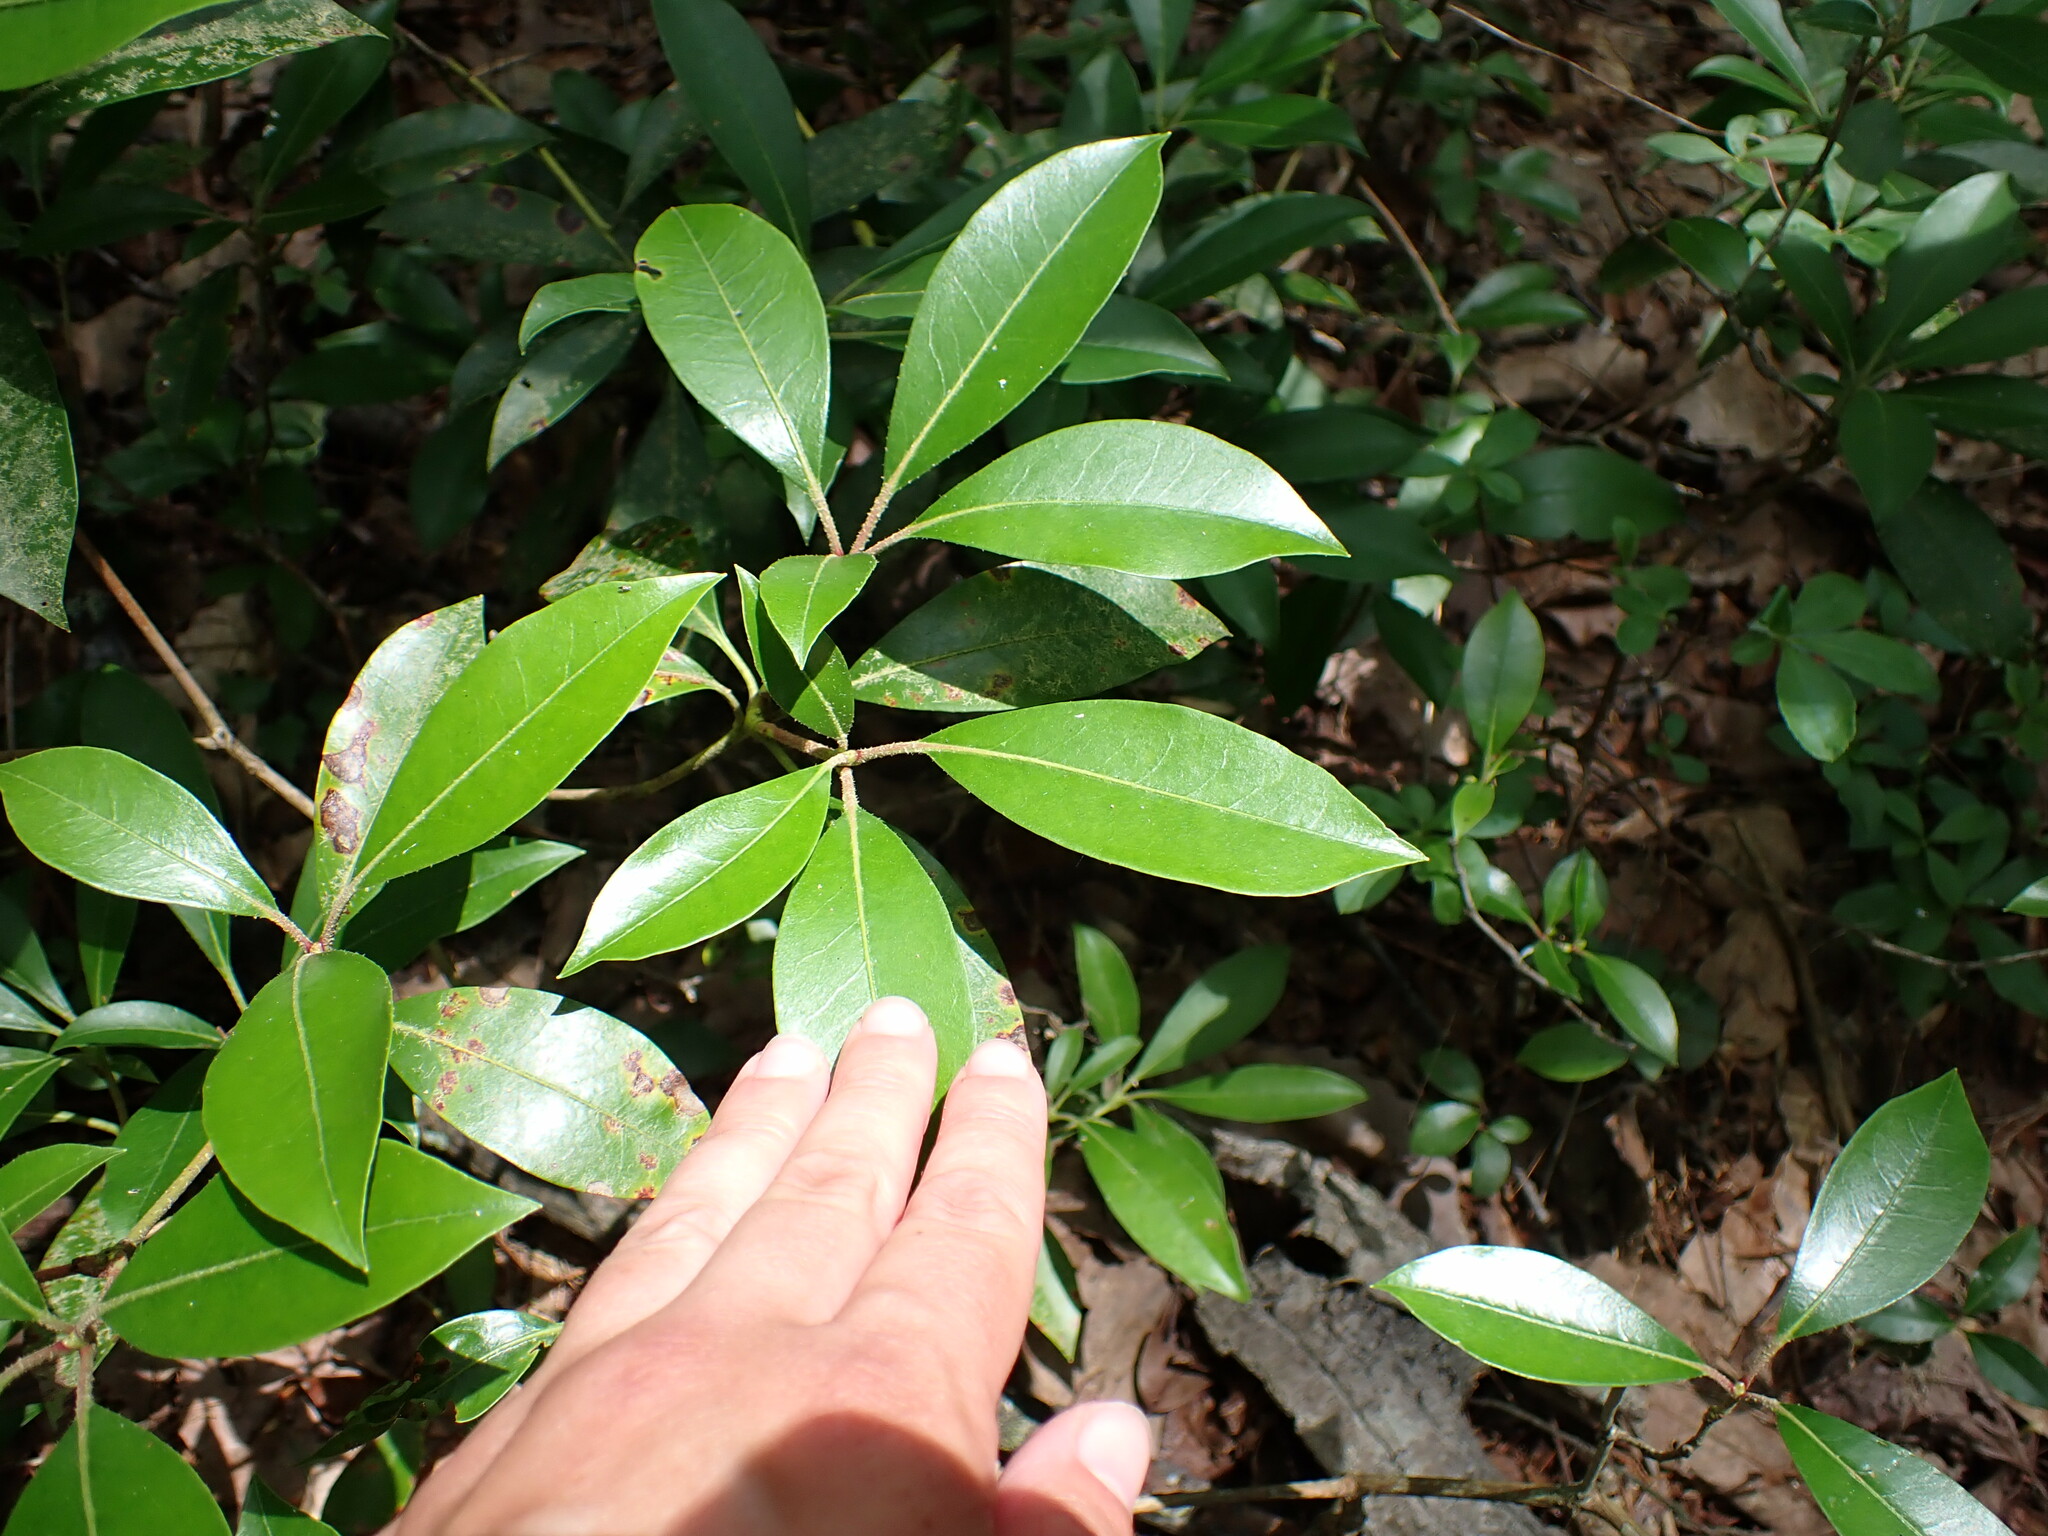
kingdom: Plantae
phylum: Tracheophyta
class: Magnoliopsida
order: Ericales
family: Ericaceae
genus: Kalmia
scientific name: Kalmia latifolia
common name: Mountain-laurel
